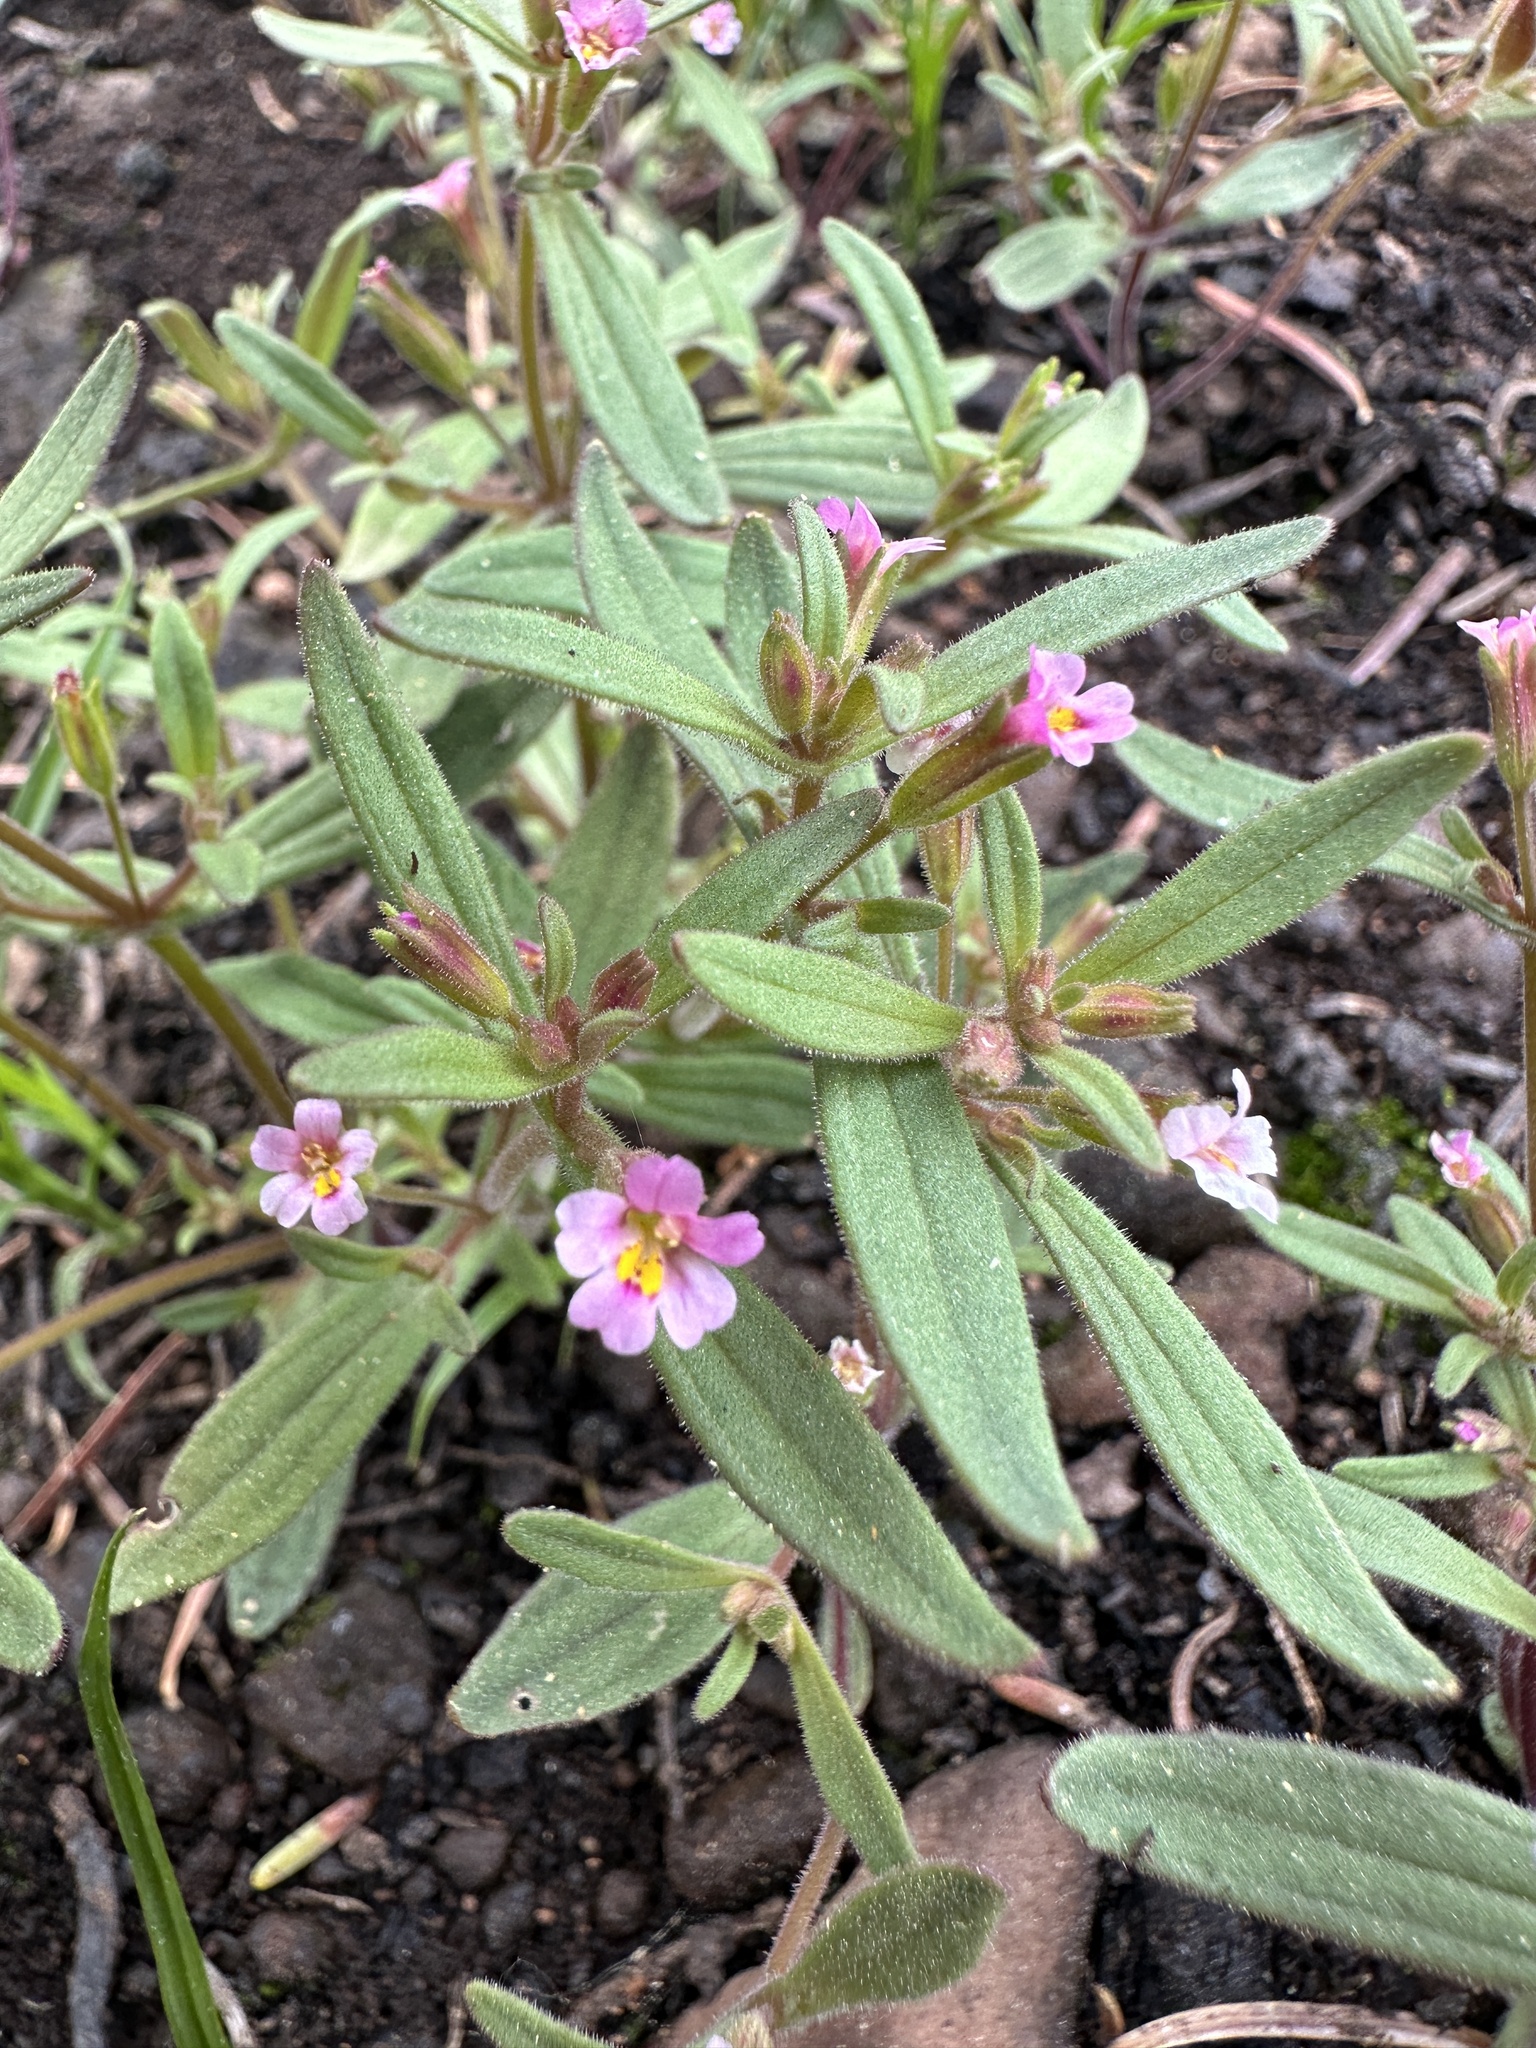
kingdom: Plantae
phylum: Tracheophyta
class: Magnoliopsida
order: Lamiales
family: Phrymaceae
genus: Erythranthe
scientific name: Erythranthe breweri
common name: Brewer's monkeyflower
